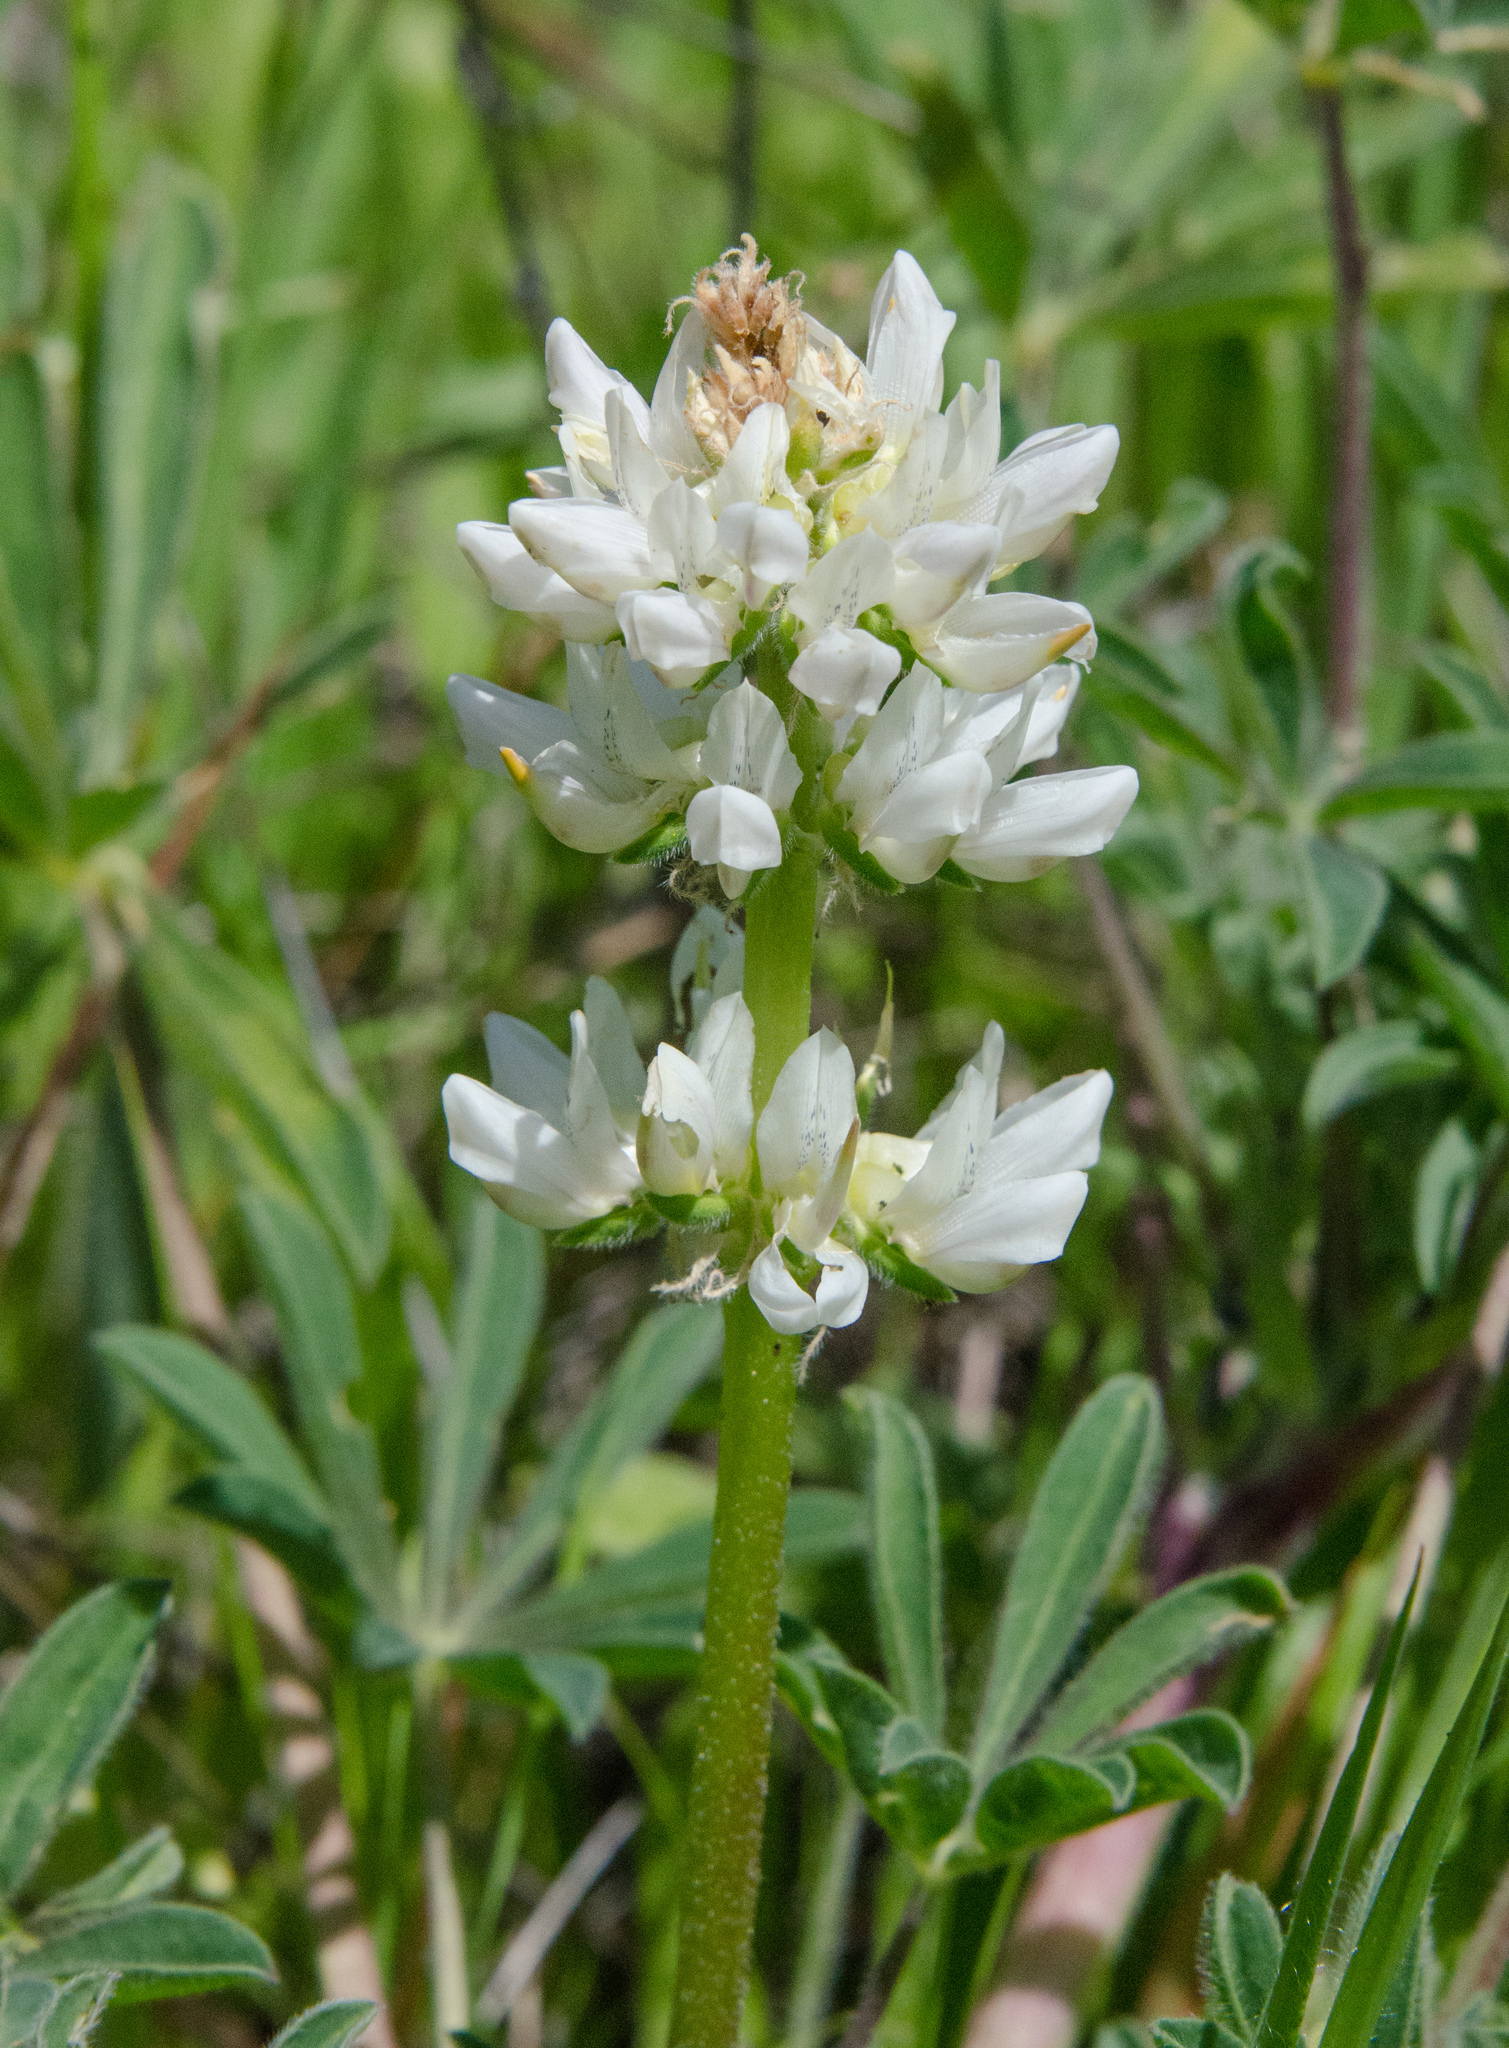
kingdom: Plantae
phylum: Tracheophyta
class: Magnoliopsida
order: Fabales
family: Fabaceae
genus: Lupinus
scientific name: Lupinus microcarpus
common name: Chick lupine
